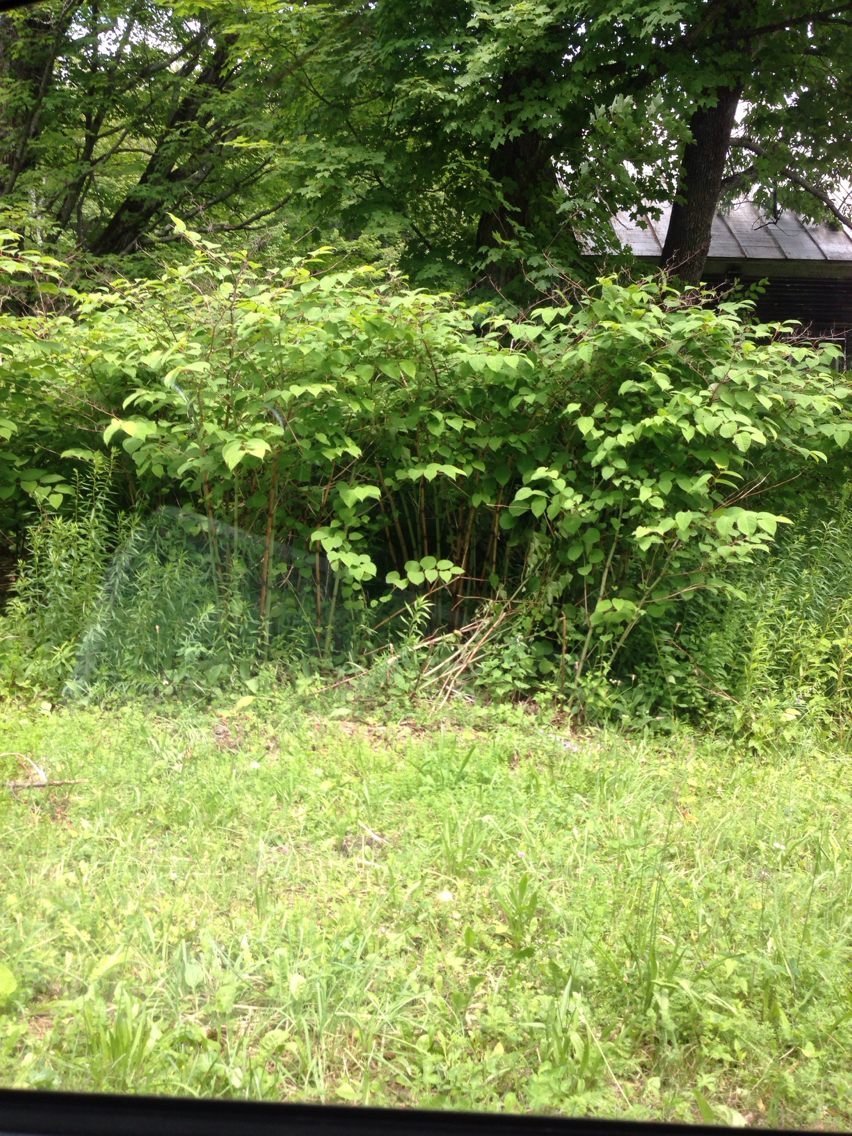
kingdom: Plantae
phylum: Tracheophyta
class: Magnoliopsida
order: Caryophyllales
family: Polygonaceae
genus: Reynoutria
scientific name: Reynoutria japonica
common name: Japanese knotweed
